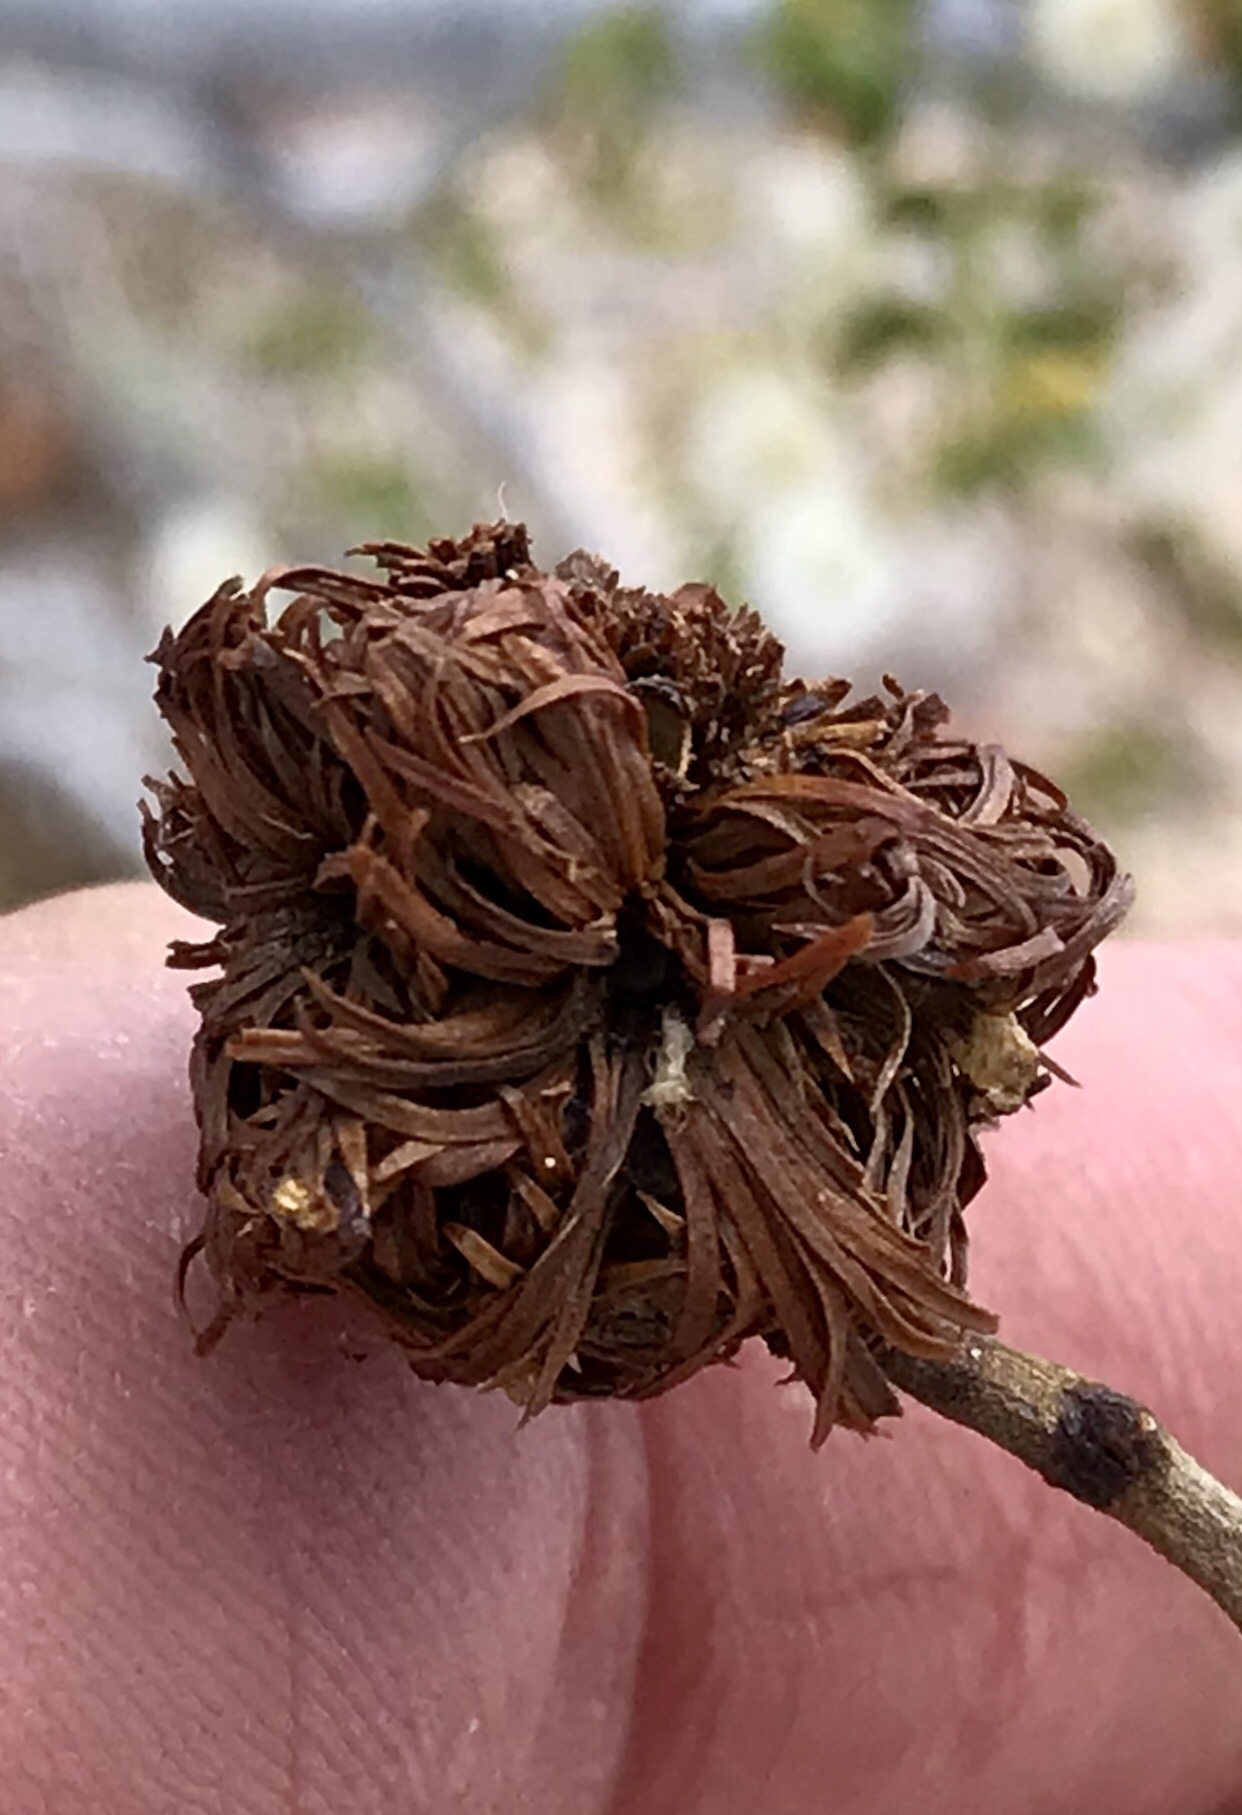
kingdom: Animalia
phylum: Arthropoda
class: Insecta
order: Diptera
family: Cecidomyiidae
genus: Asphondylia
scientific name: Asphondylia auripila
